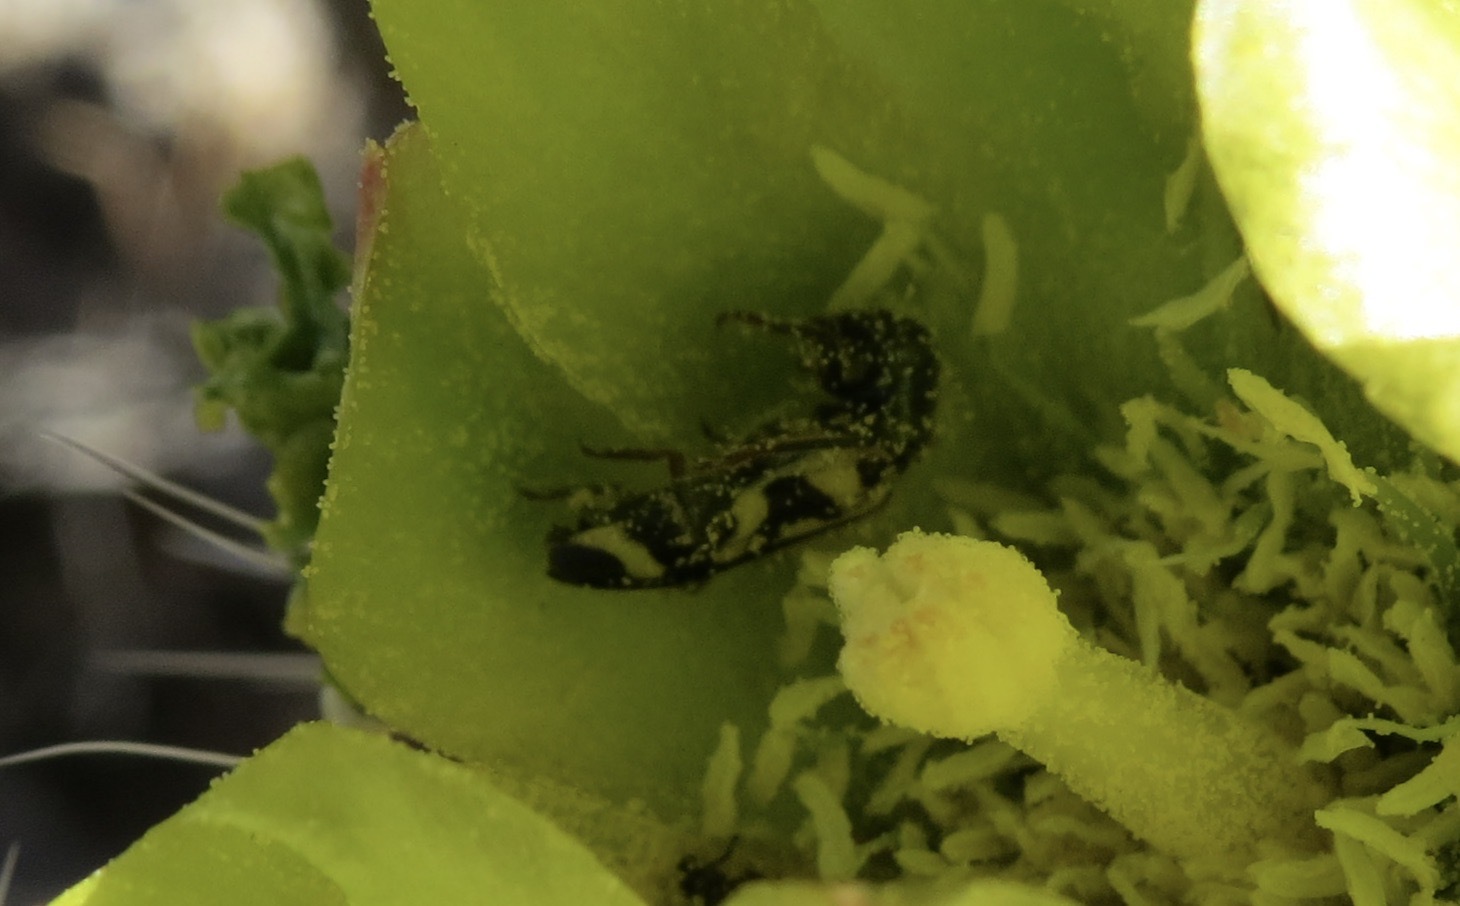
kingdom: Animalia
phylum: Arthropoda
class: Insecta
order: Coleoptera
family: Cleridae
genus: Trichodes
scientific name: Trichodes ornatus
